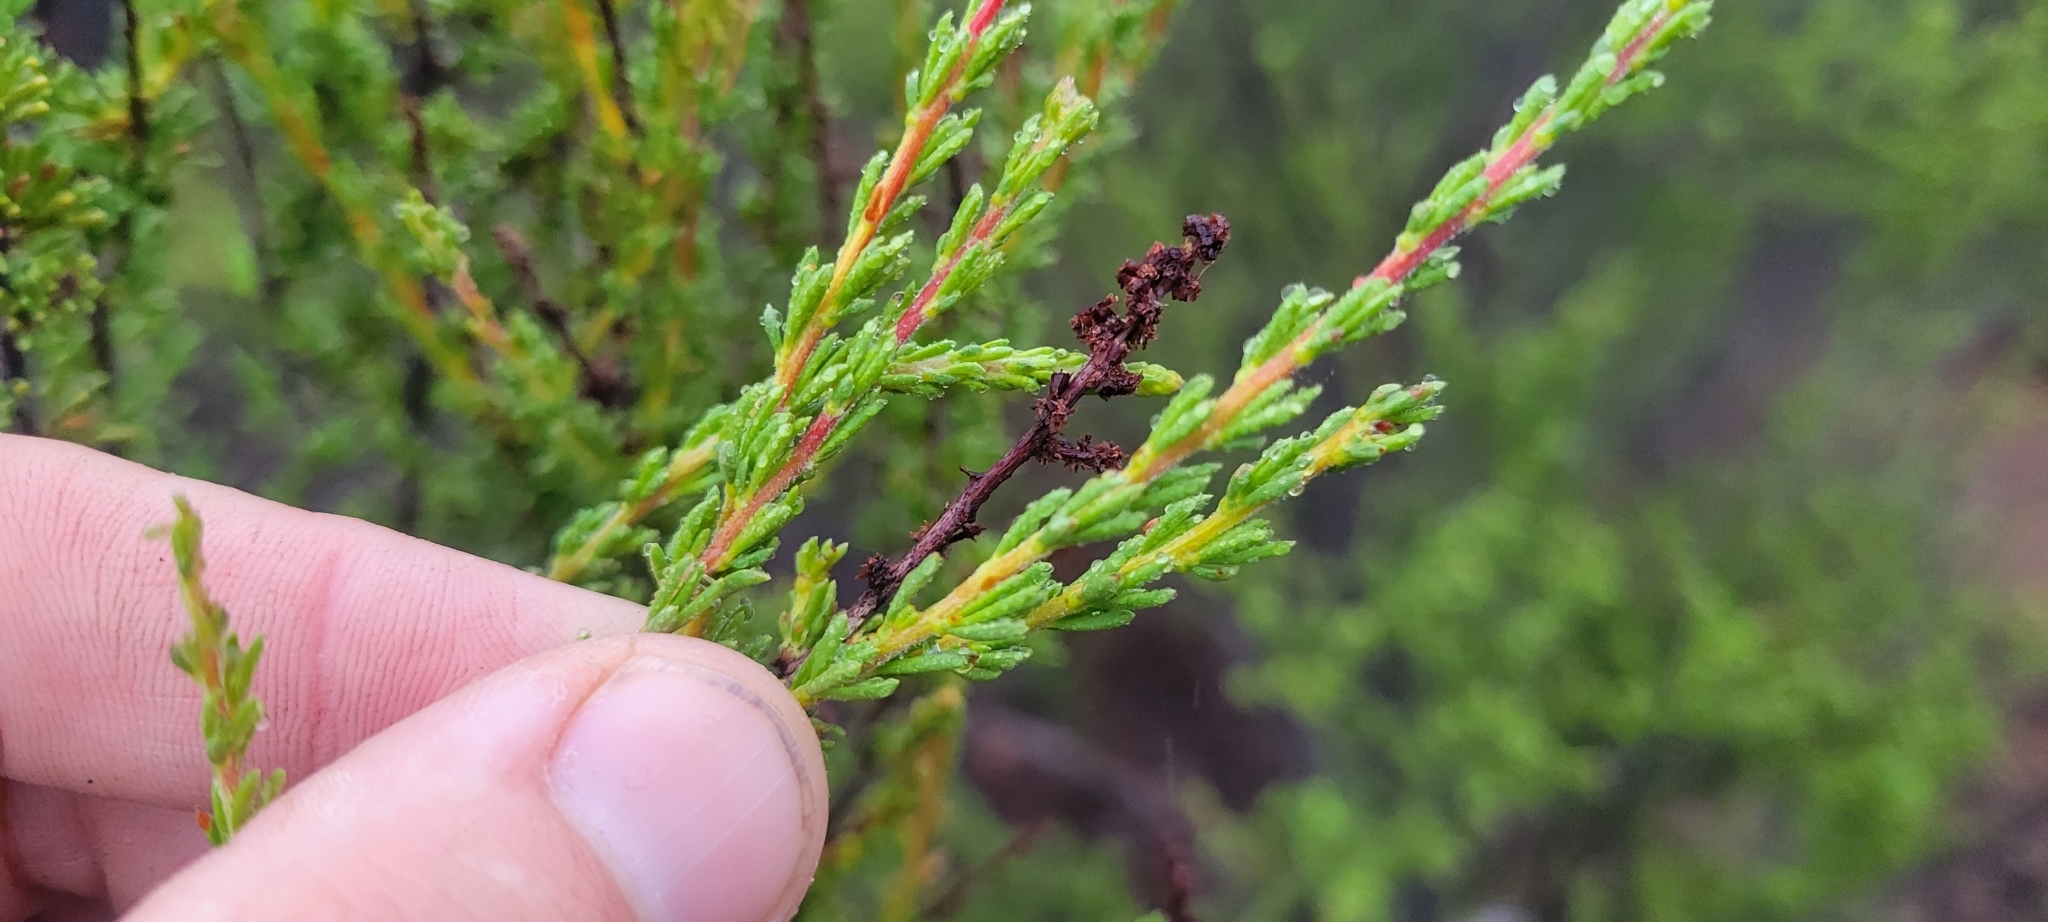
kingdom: Plantae
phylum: Tracheophyta
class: Magnoliopsida
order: Rosales
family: Rosaceae
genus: Adenostoma
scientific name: Adenostoma fasciculatum
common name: Chamise
